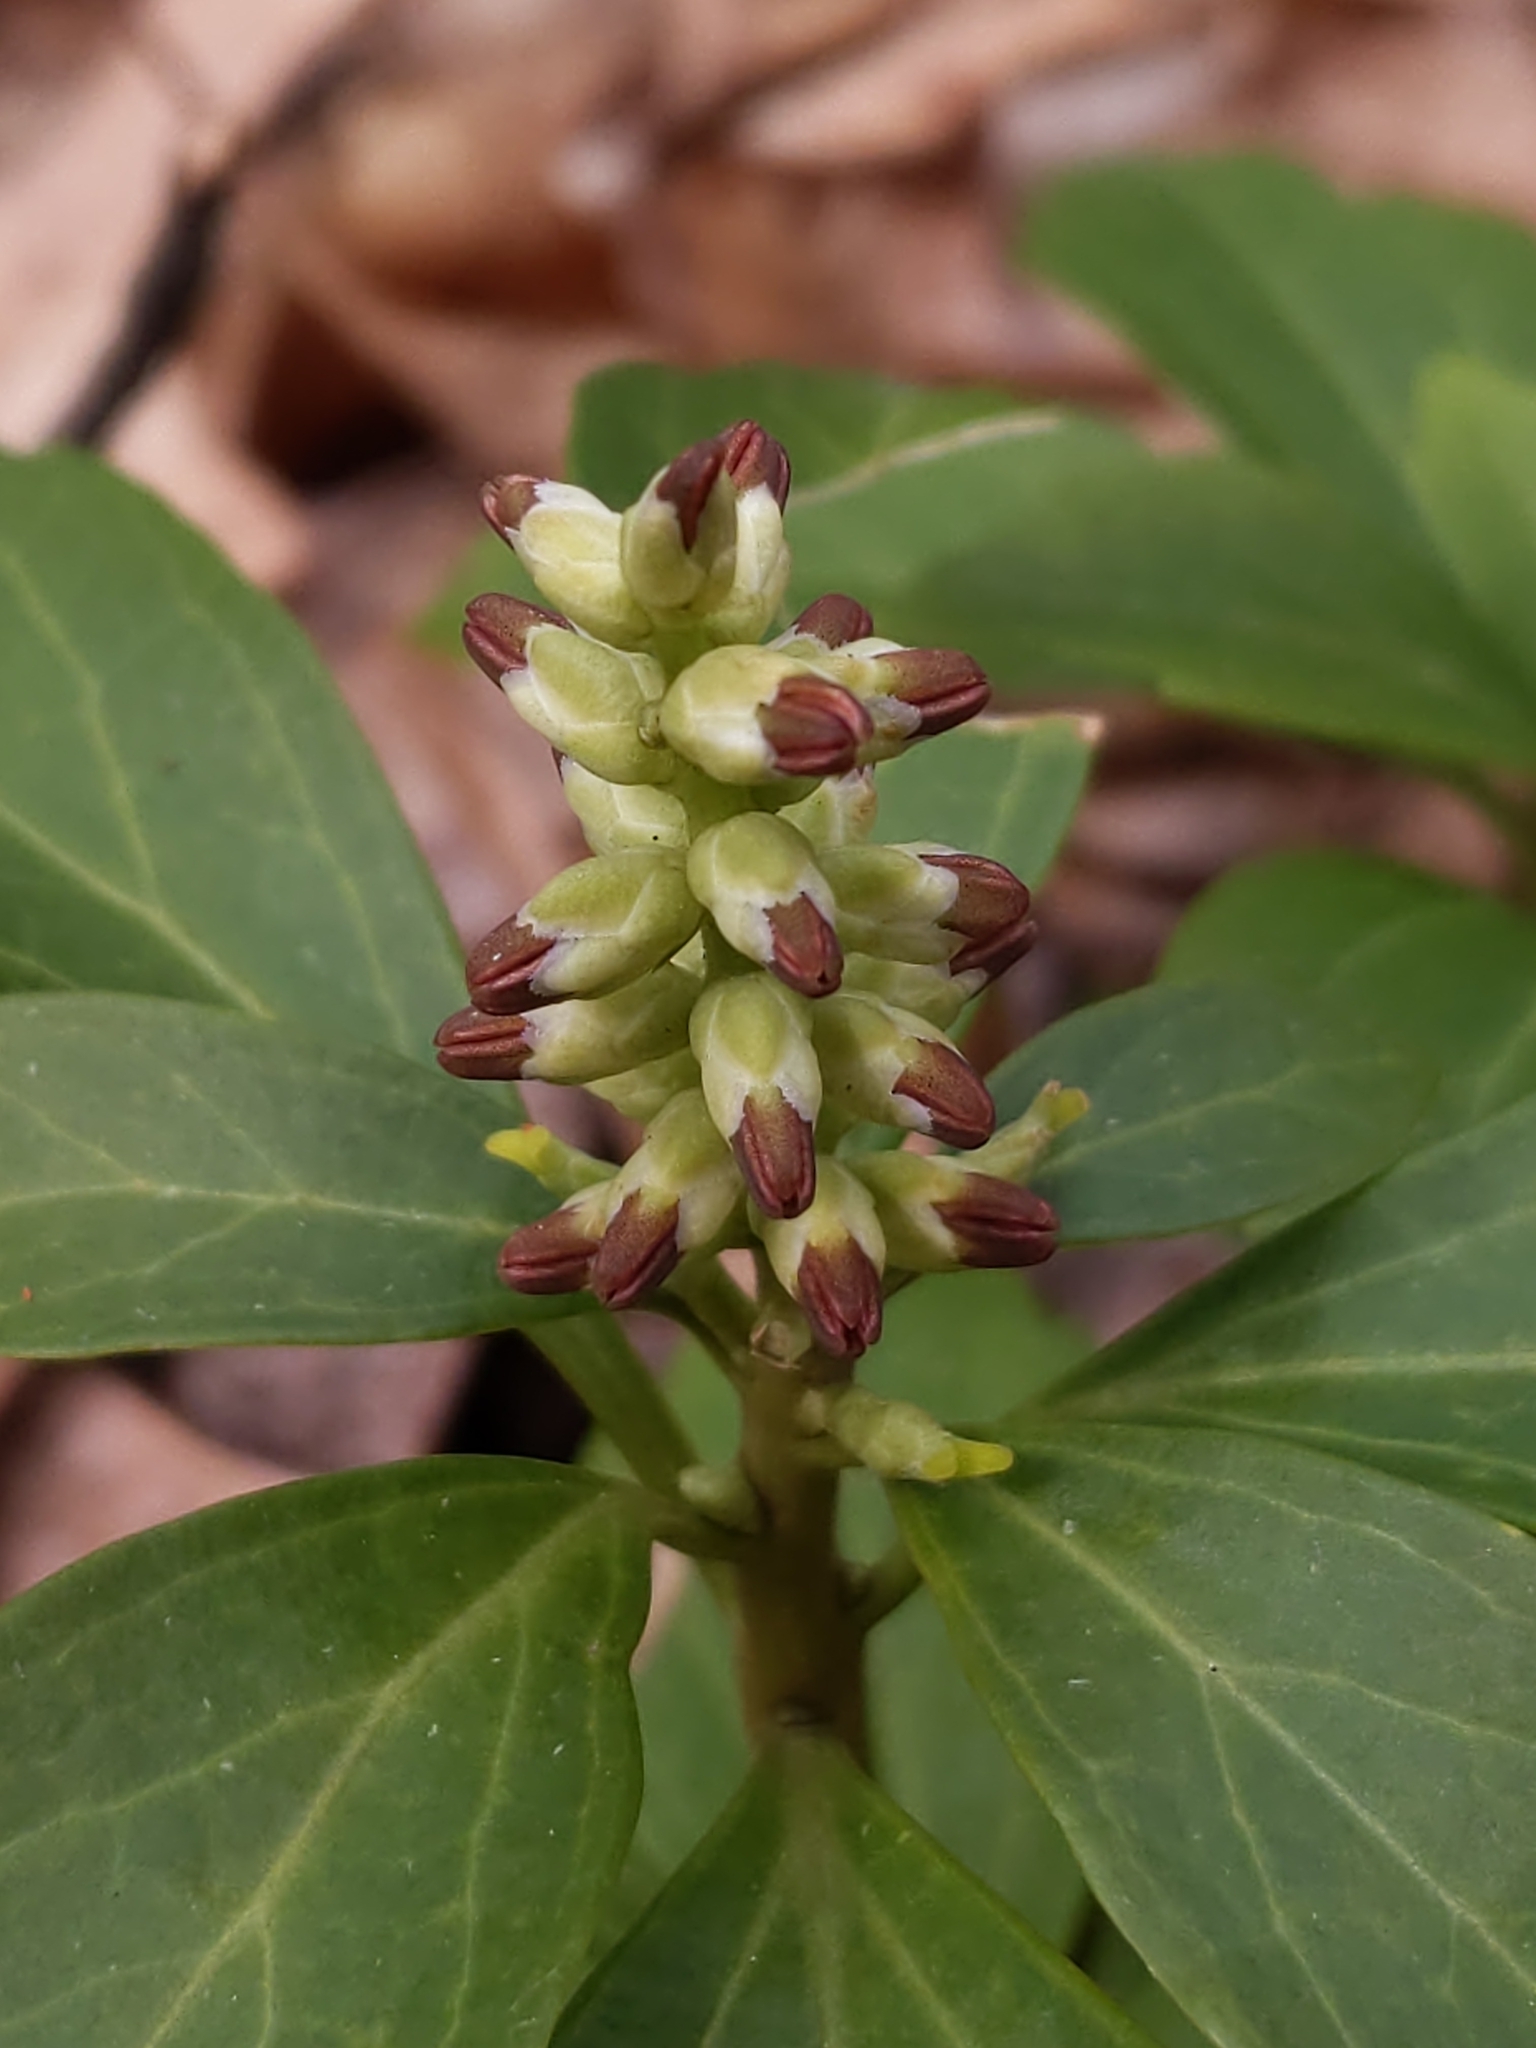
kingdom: Plantae
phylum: Tracheophyta
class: Magnoliopsida
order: Buxales
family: Buxaceae
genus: Pachysandra
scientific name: Pachysandra terminalis
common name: Japanese pachysandra
